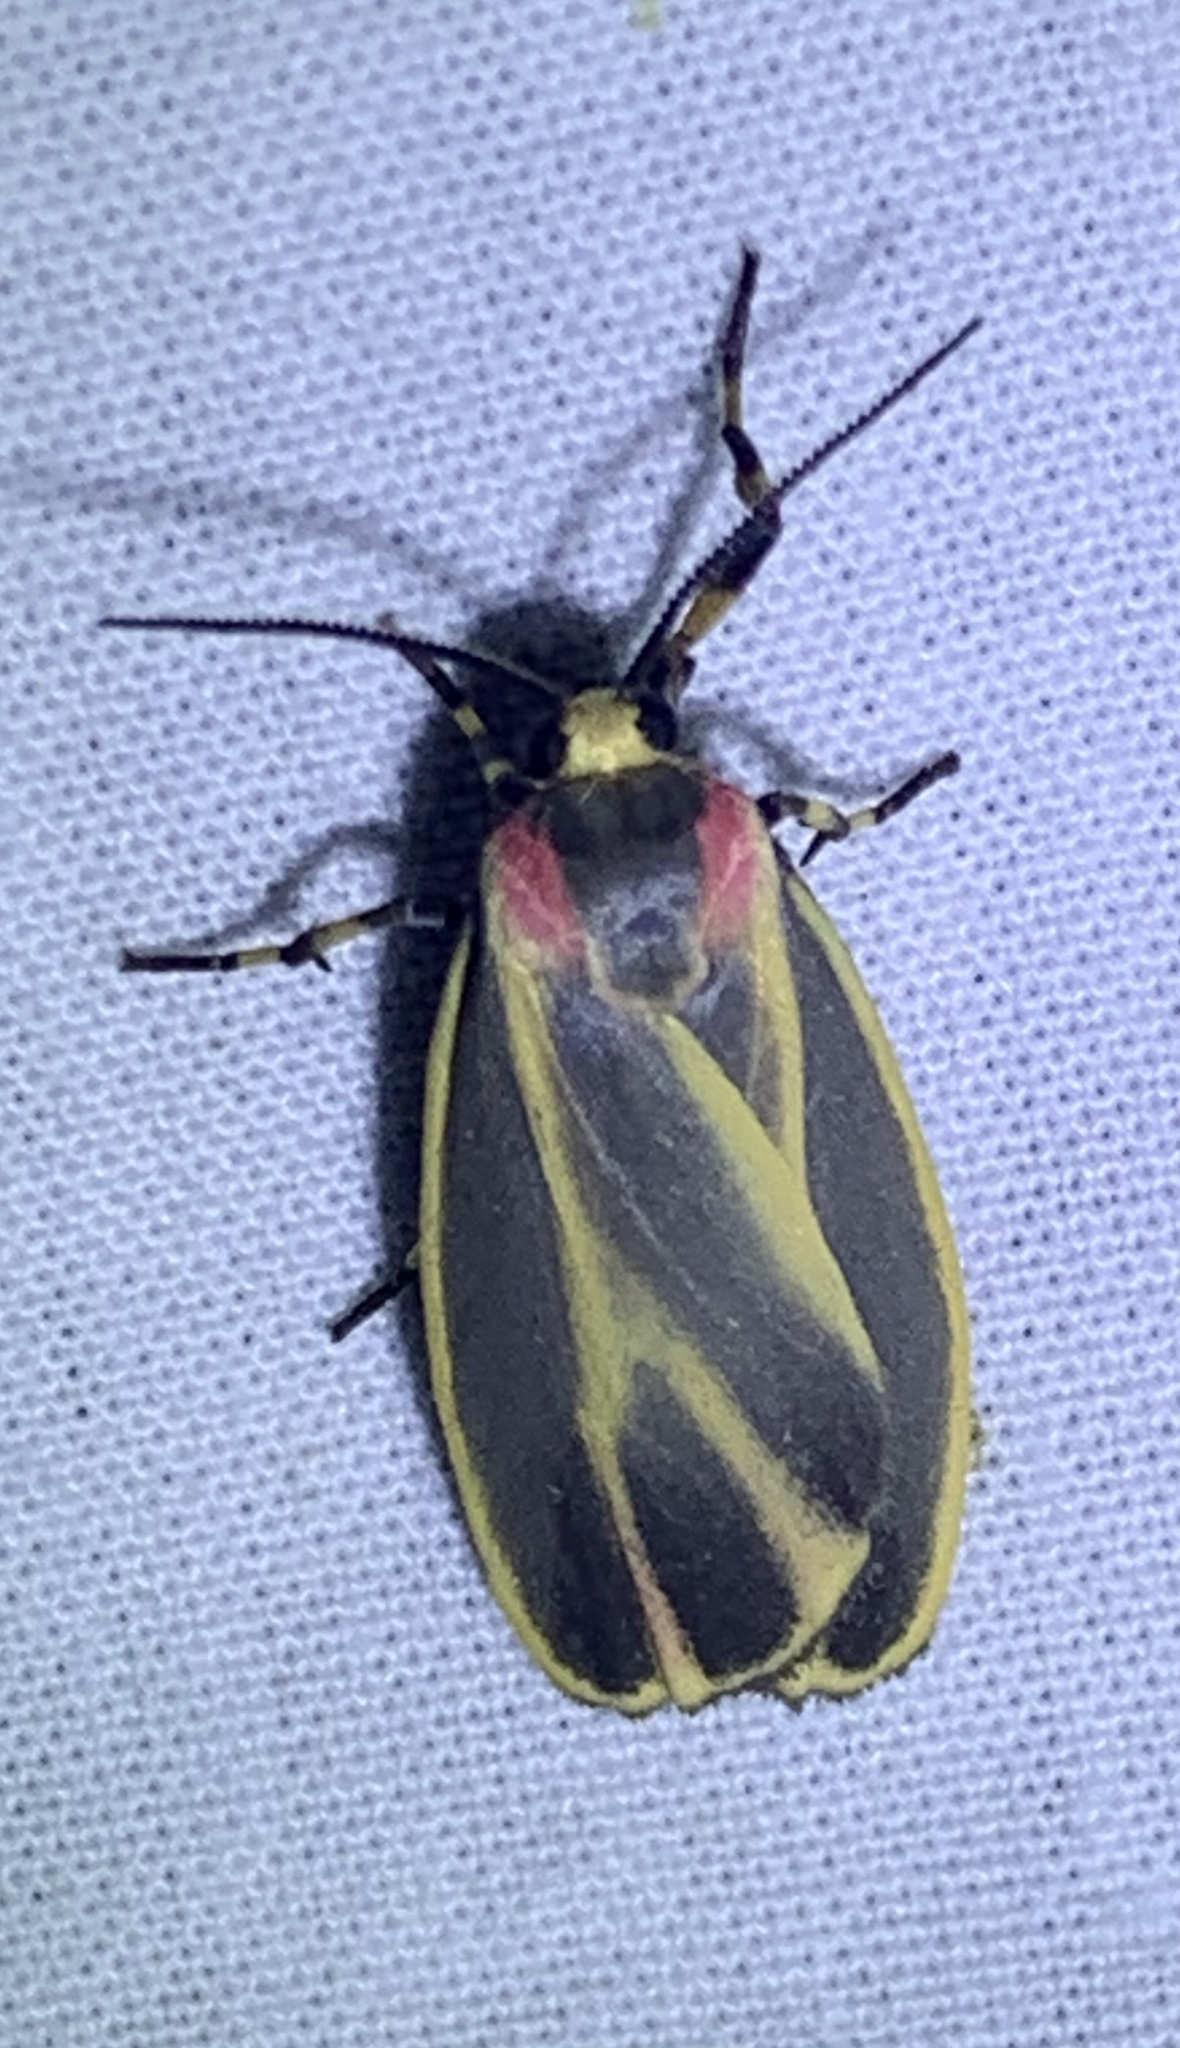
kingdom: Animalia
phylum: Arthropoda
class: Insecta
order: Lepidoptera
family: Erebidae
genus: Hypoprepia
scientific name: Hypoprepia fucosa
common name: Painted lichen moth
